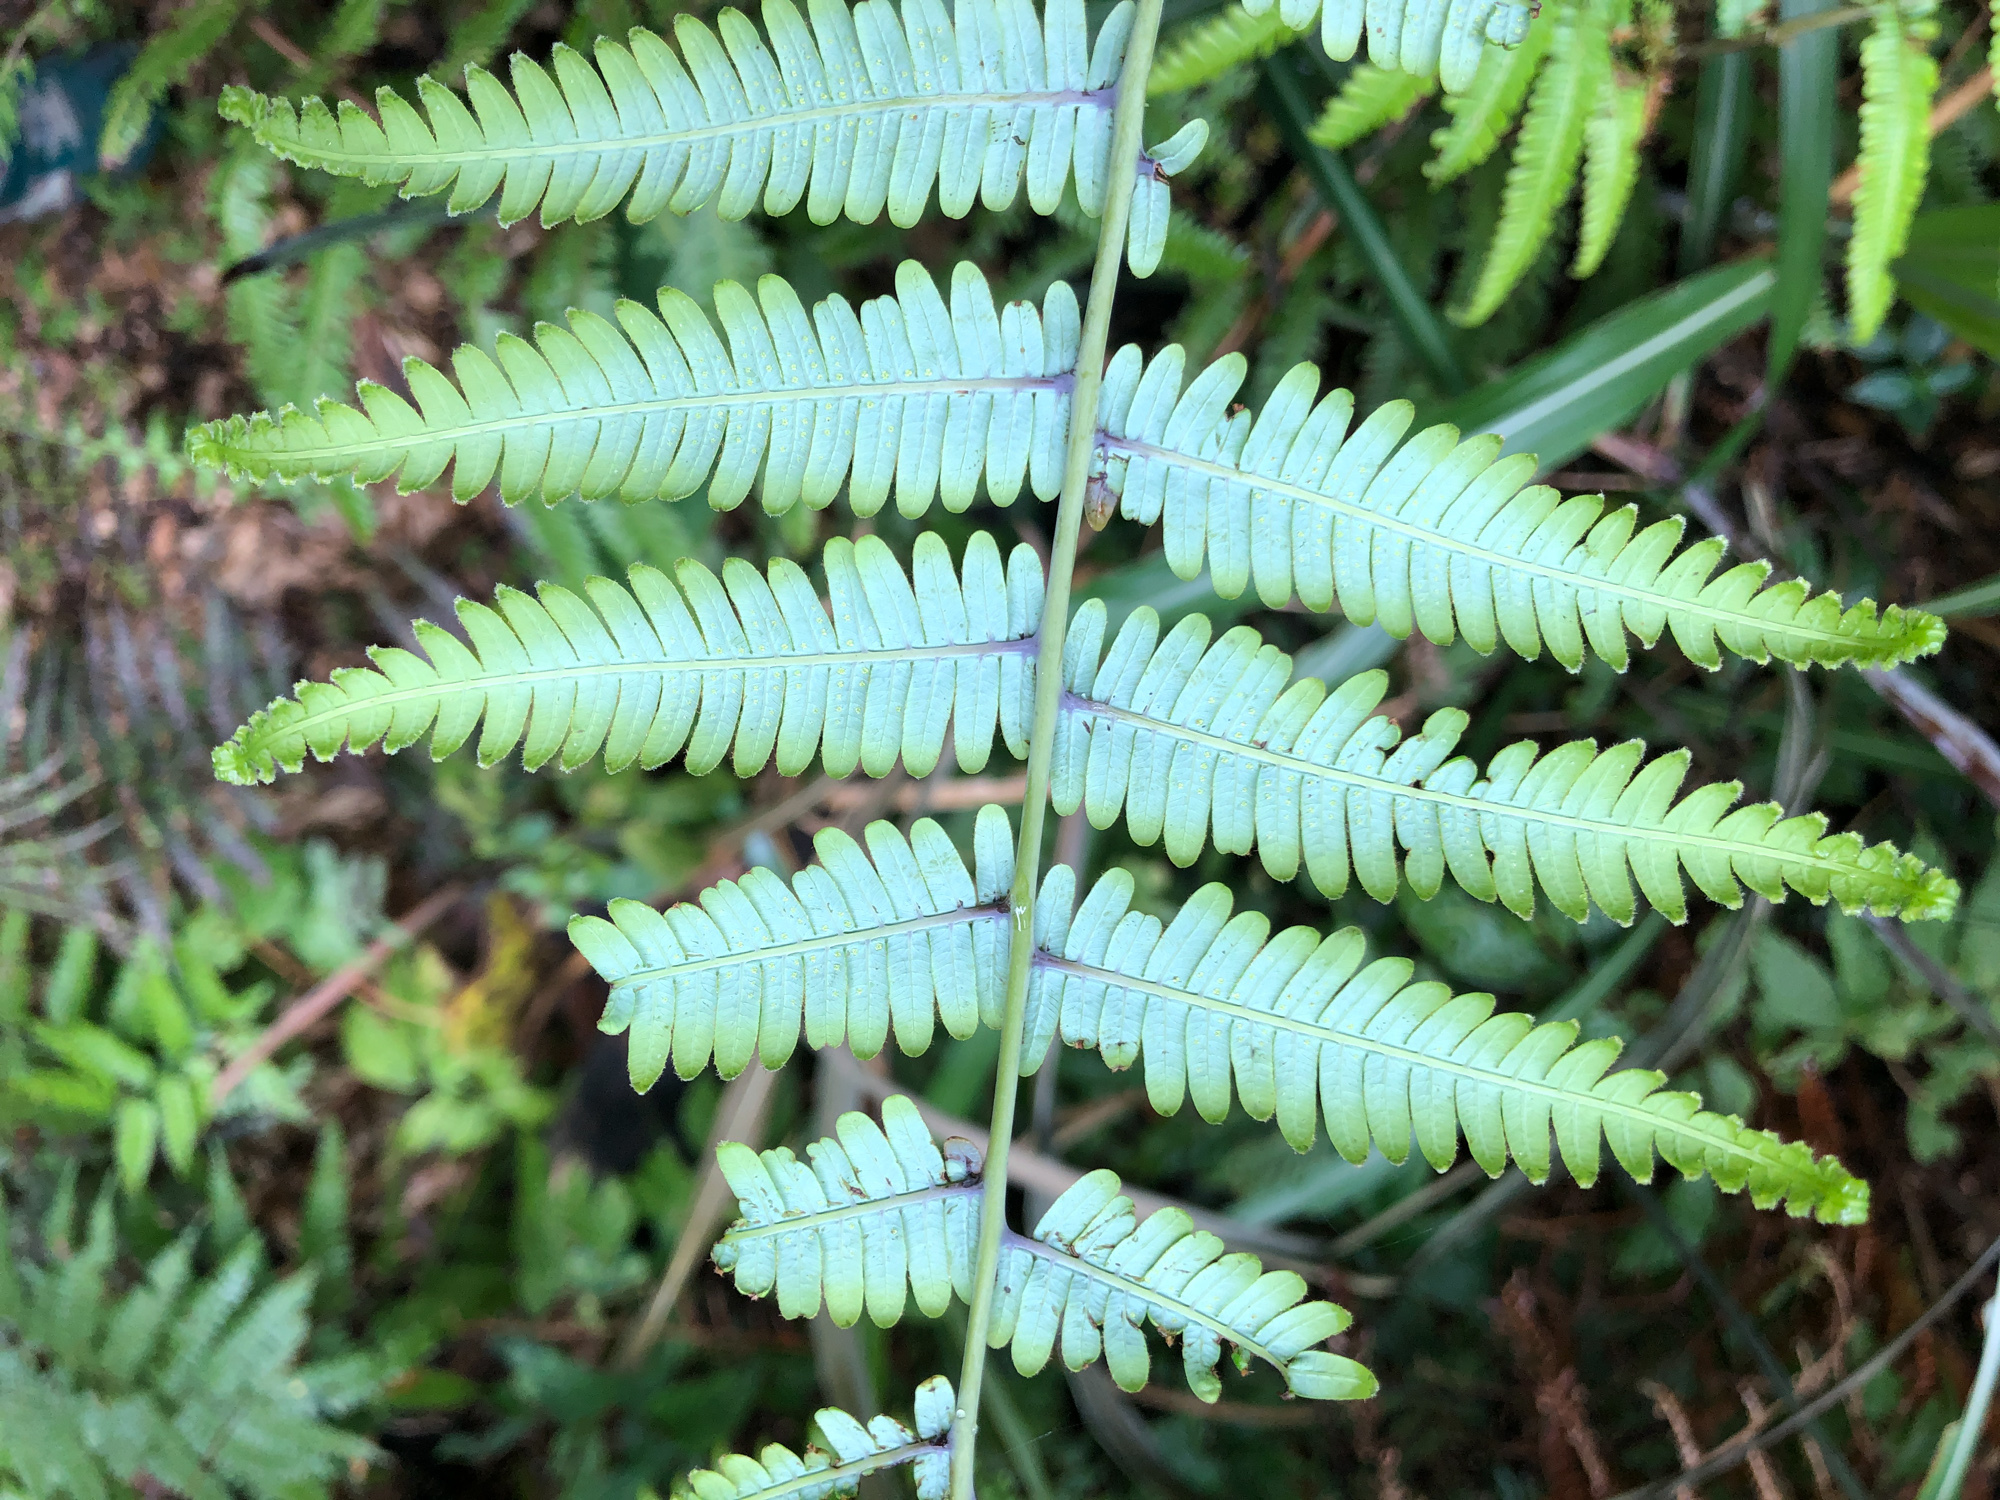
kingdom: Plantae
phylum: Tracheophyta
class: Polypodiopsida
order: Gleicheniales
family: Gleicheniaceae
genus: Diplopterygium
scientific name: Diplopterygium glaucum
